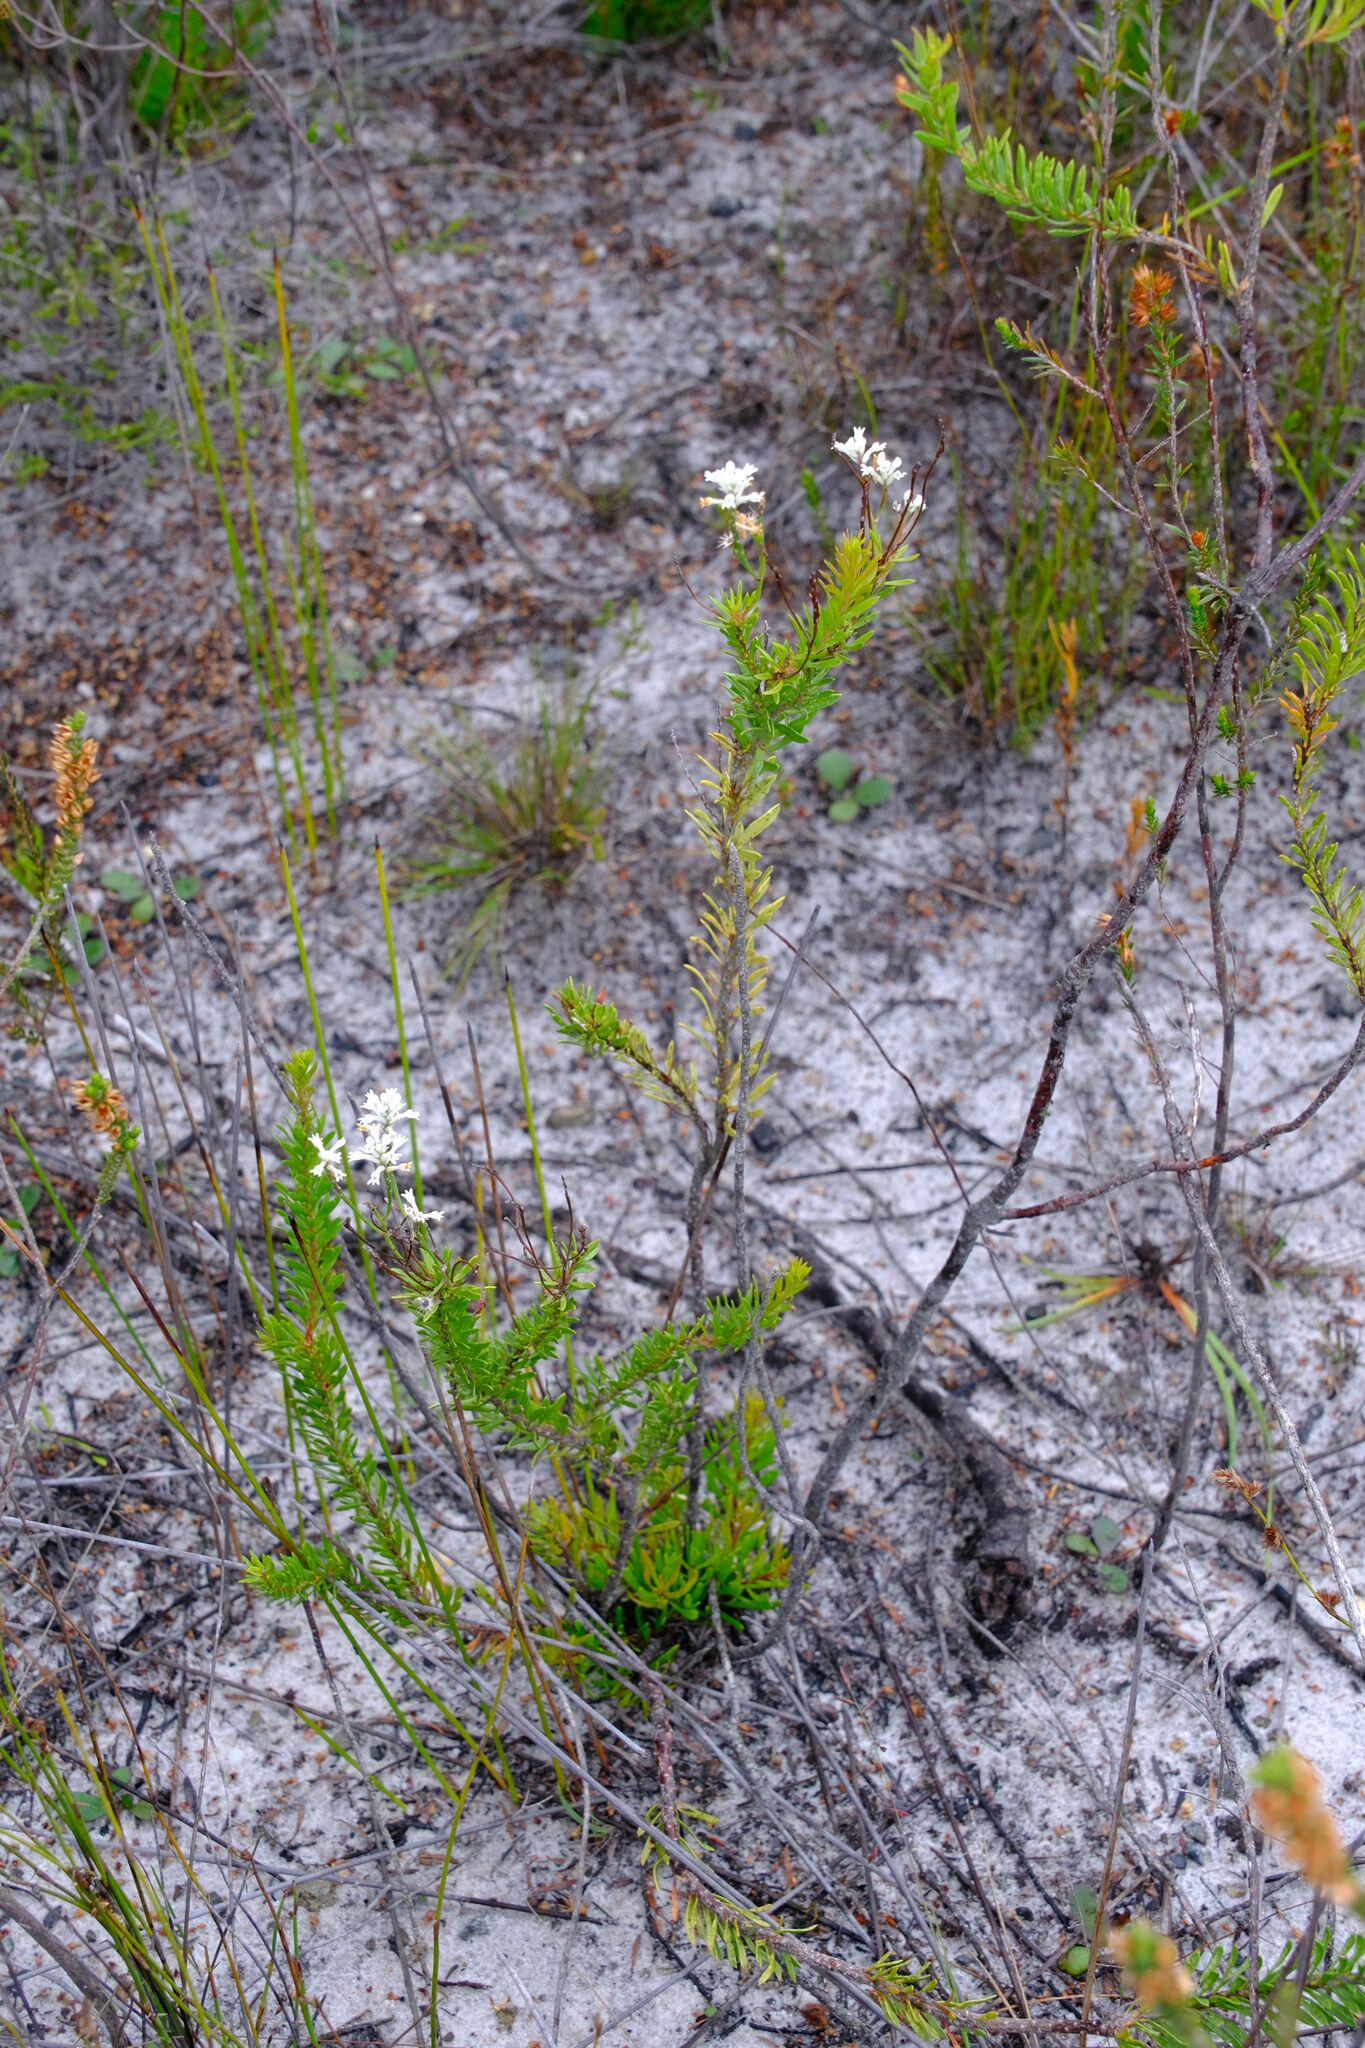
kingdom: Plantae
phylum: Tracheophyta
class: Magnoliopsida
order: Proteales
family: Proteaceae
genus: Conospermum
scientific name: Conospermum taxifolium
